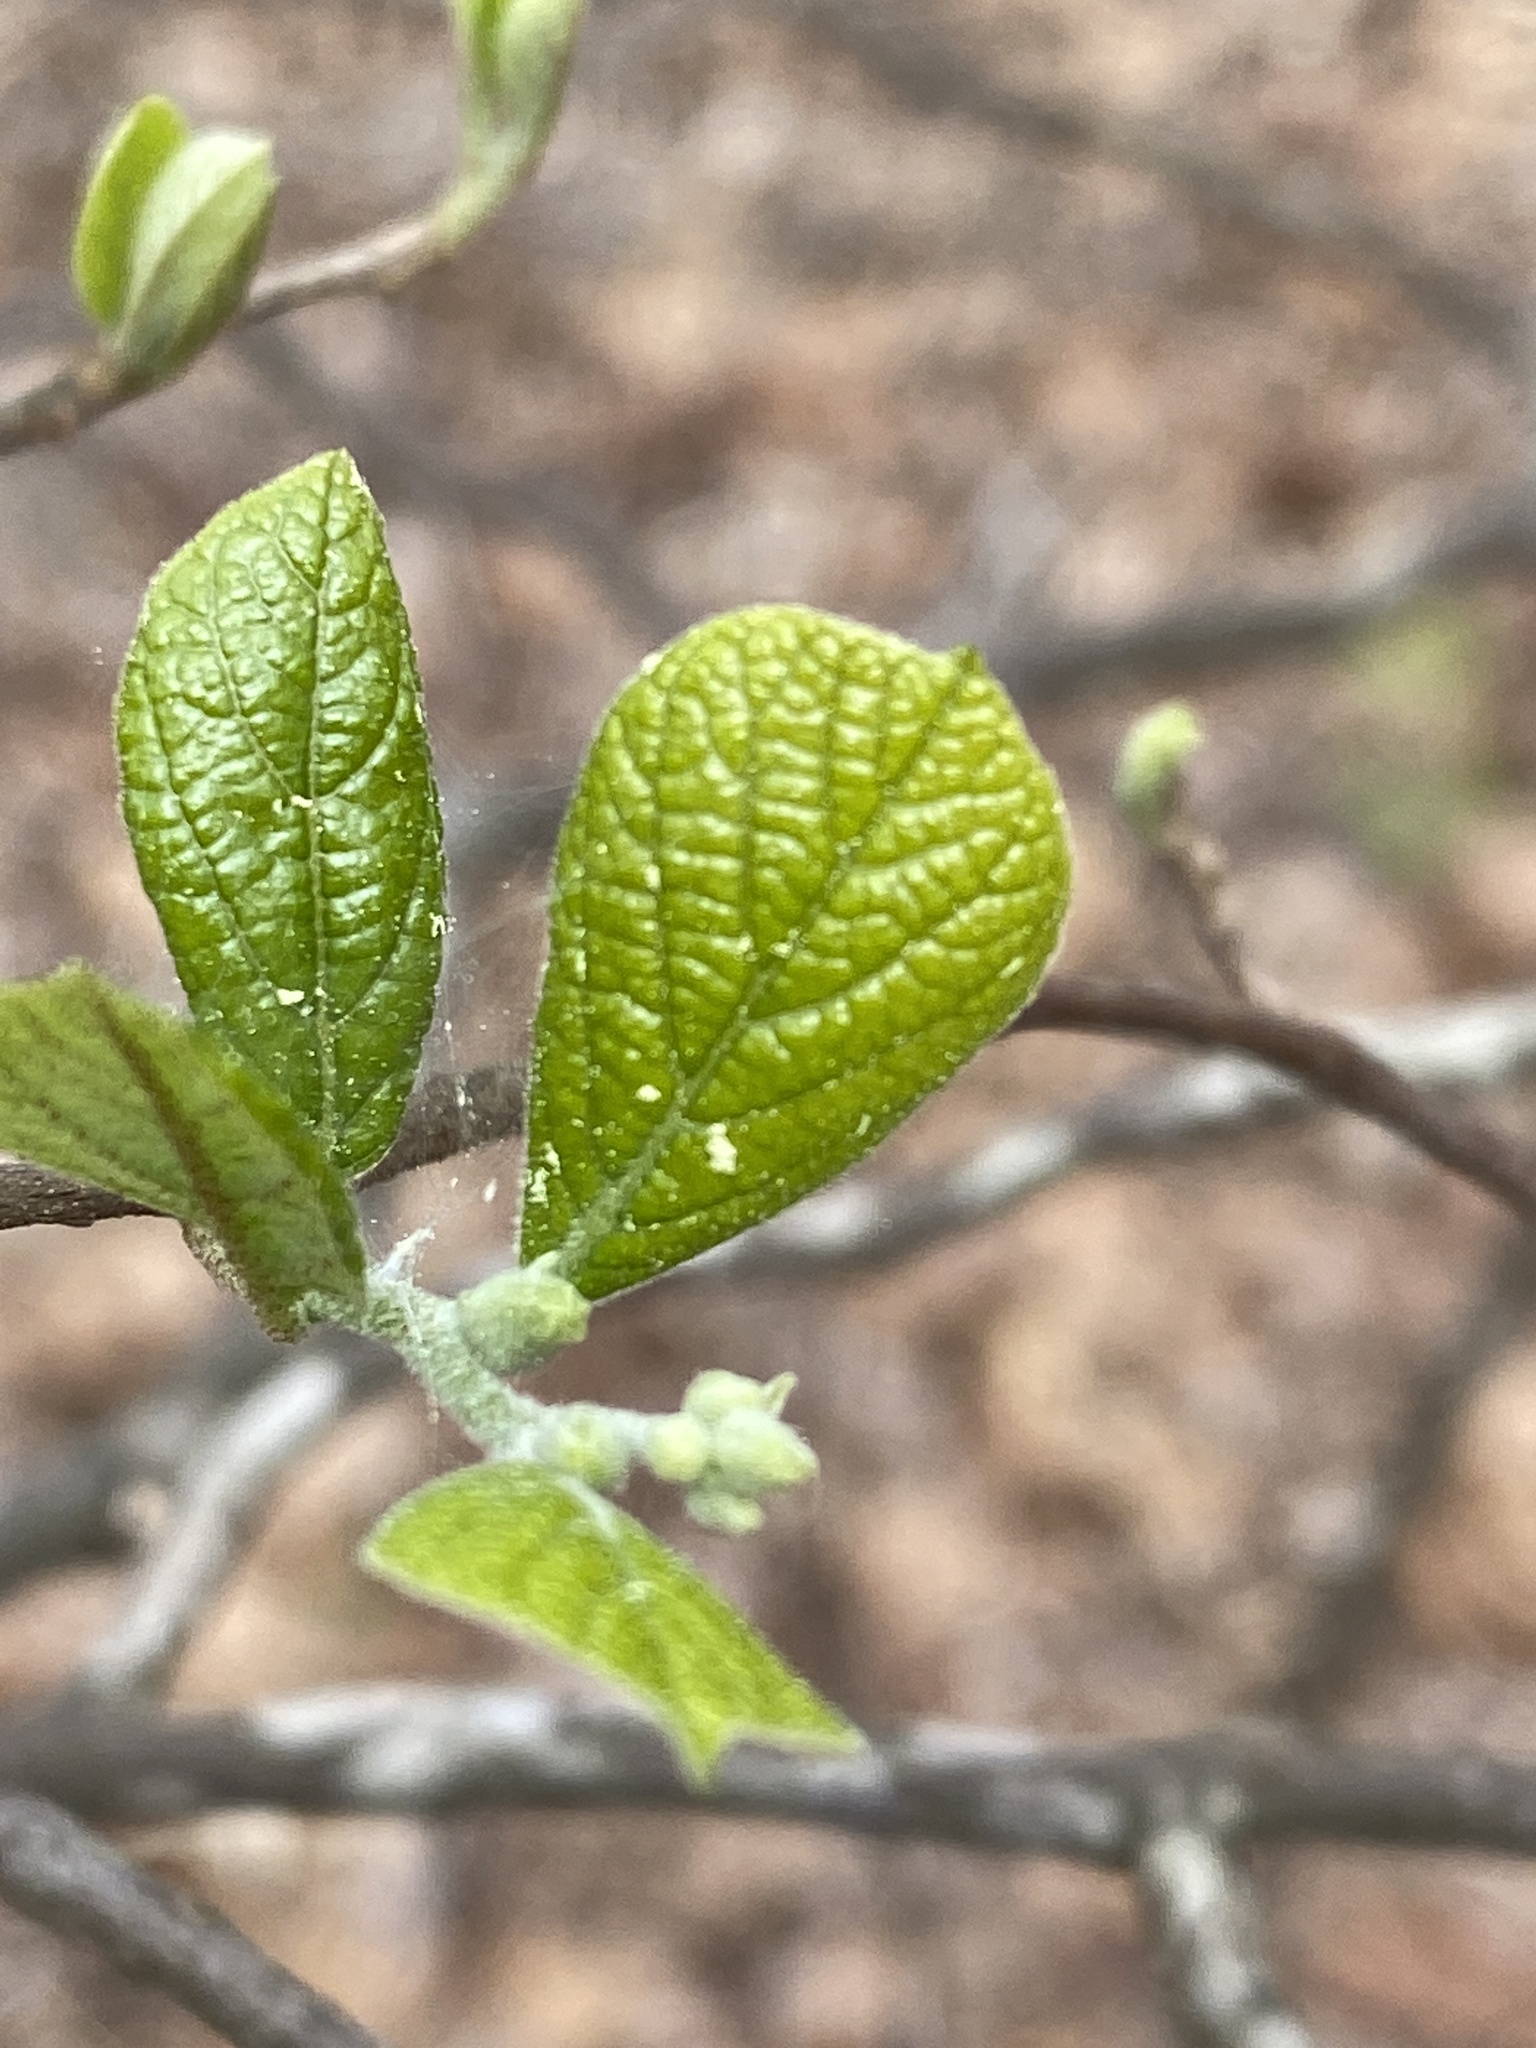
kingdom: Plantae
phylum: Tracheophyta
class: Magnoliopsida
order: Ericales
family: Styracaceae
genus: Styrax
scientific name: Styrax grandifolius
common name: Big-leaf snowbell
